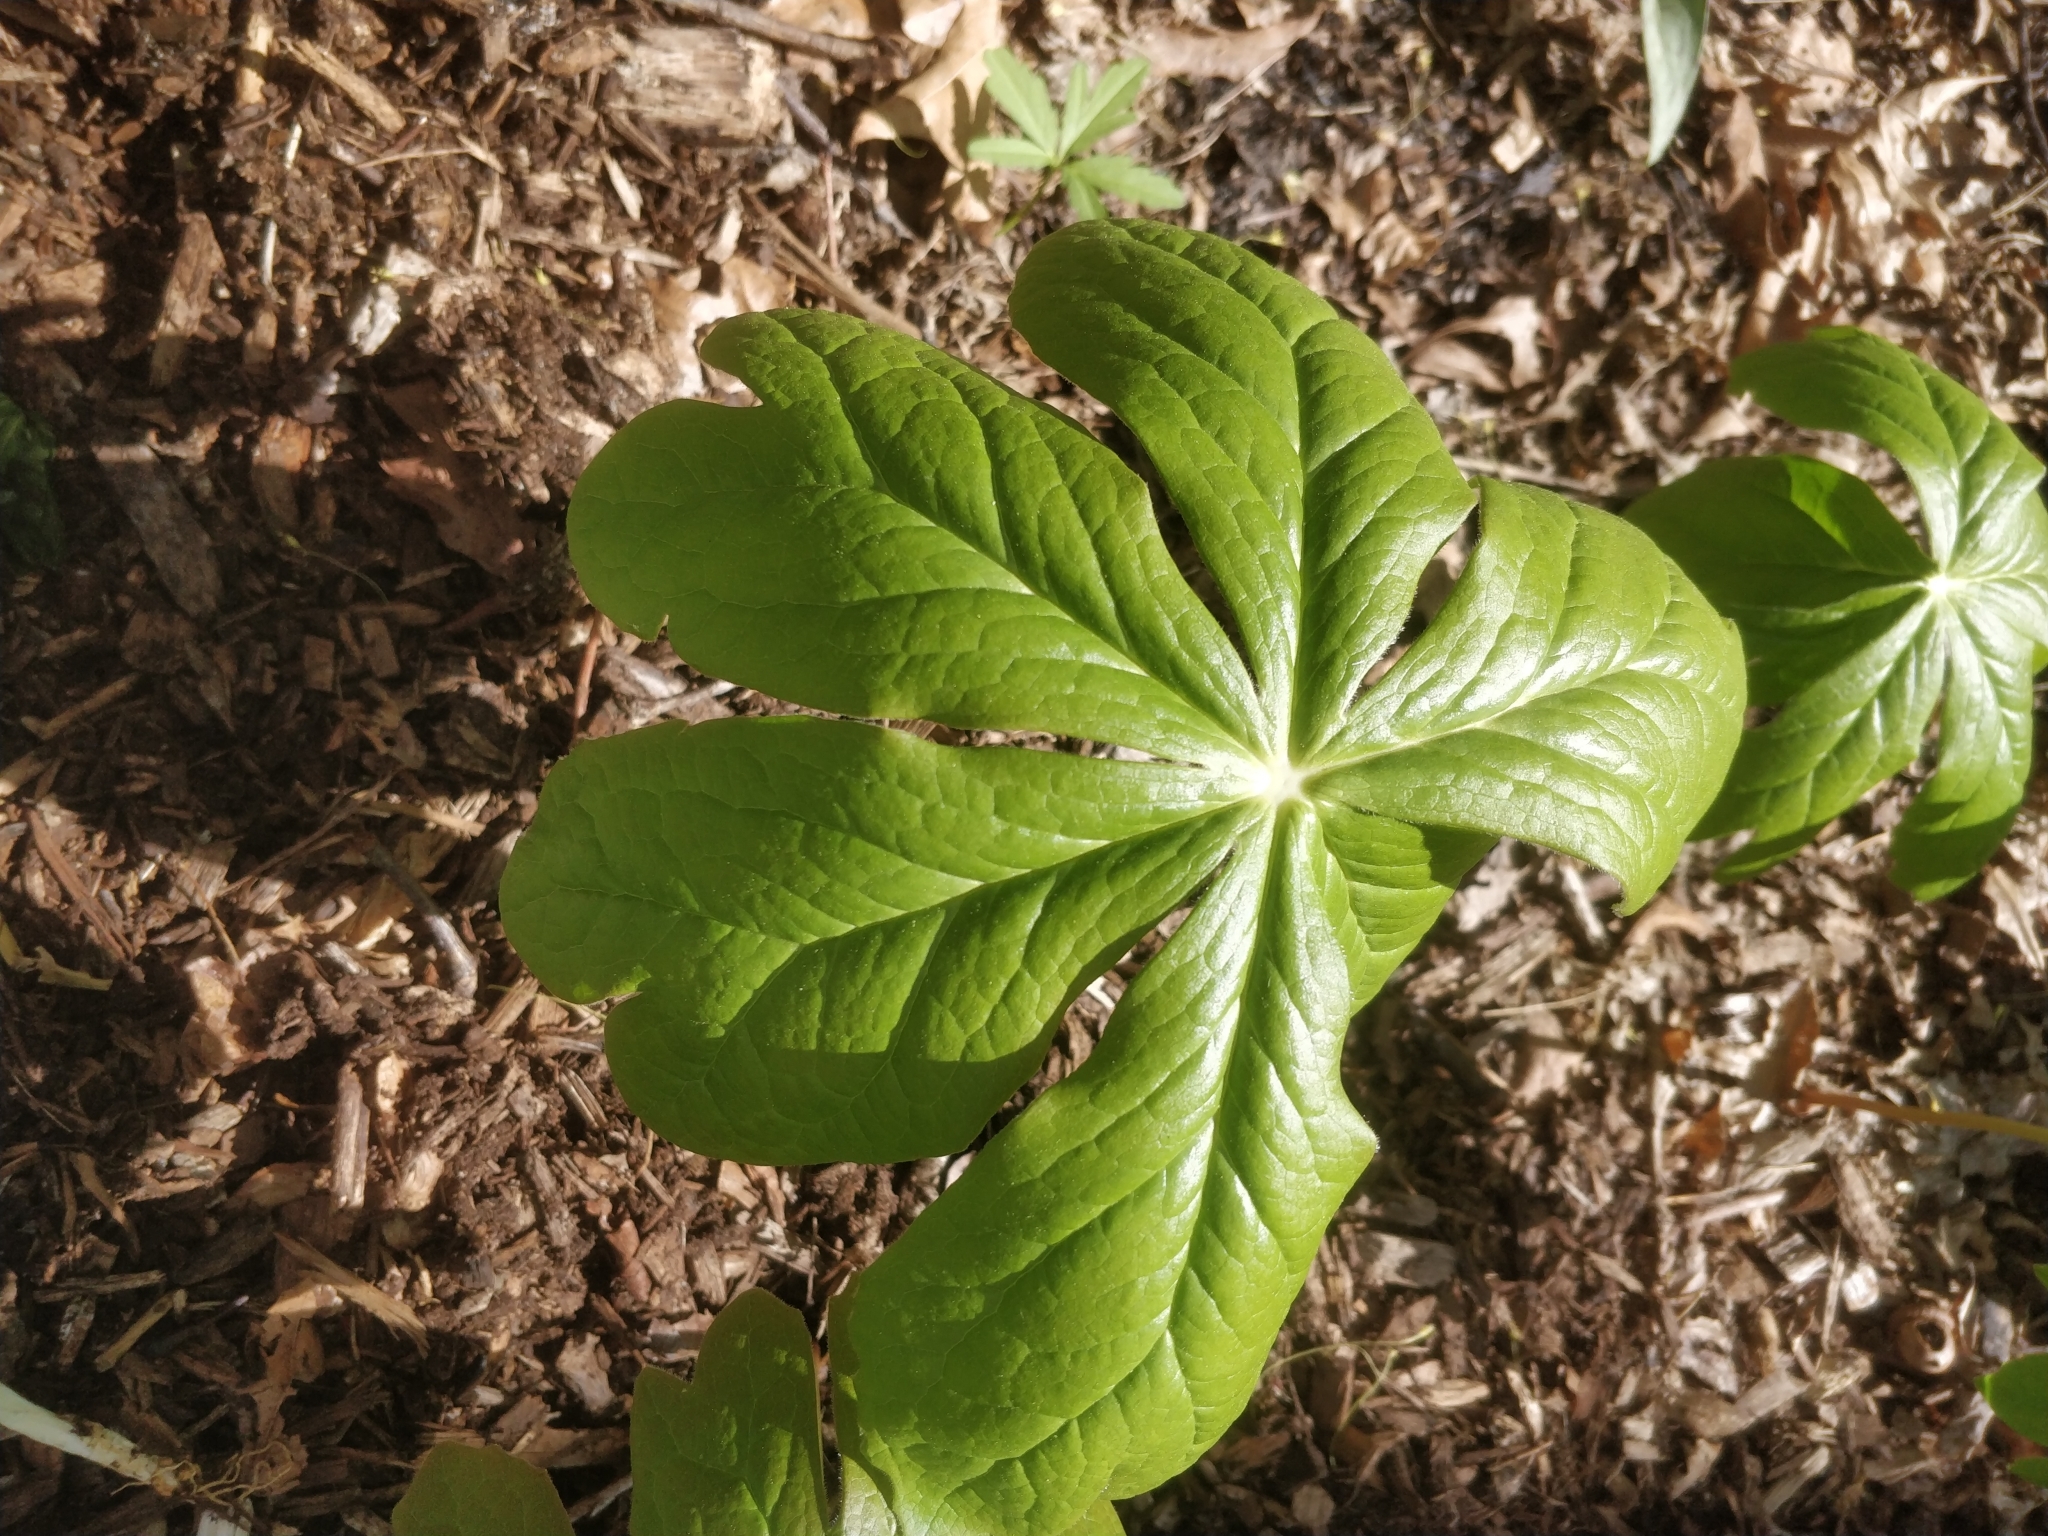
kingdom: Plantae
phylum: Tracheophyta
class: Magnoliopsida
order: Ranunculales
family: Berberidaceae
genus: Podophyllum
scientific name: Podophyllum peltatum
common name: Wild mandrake
